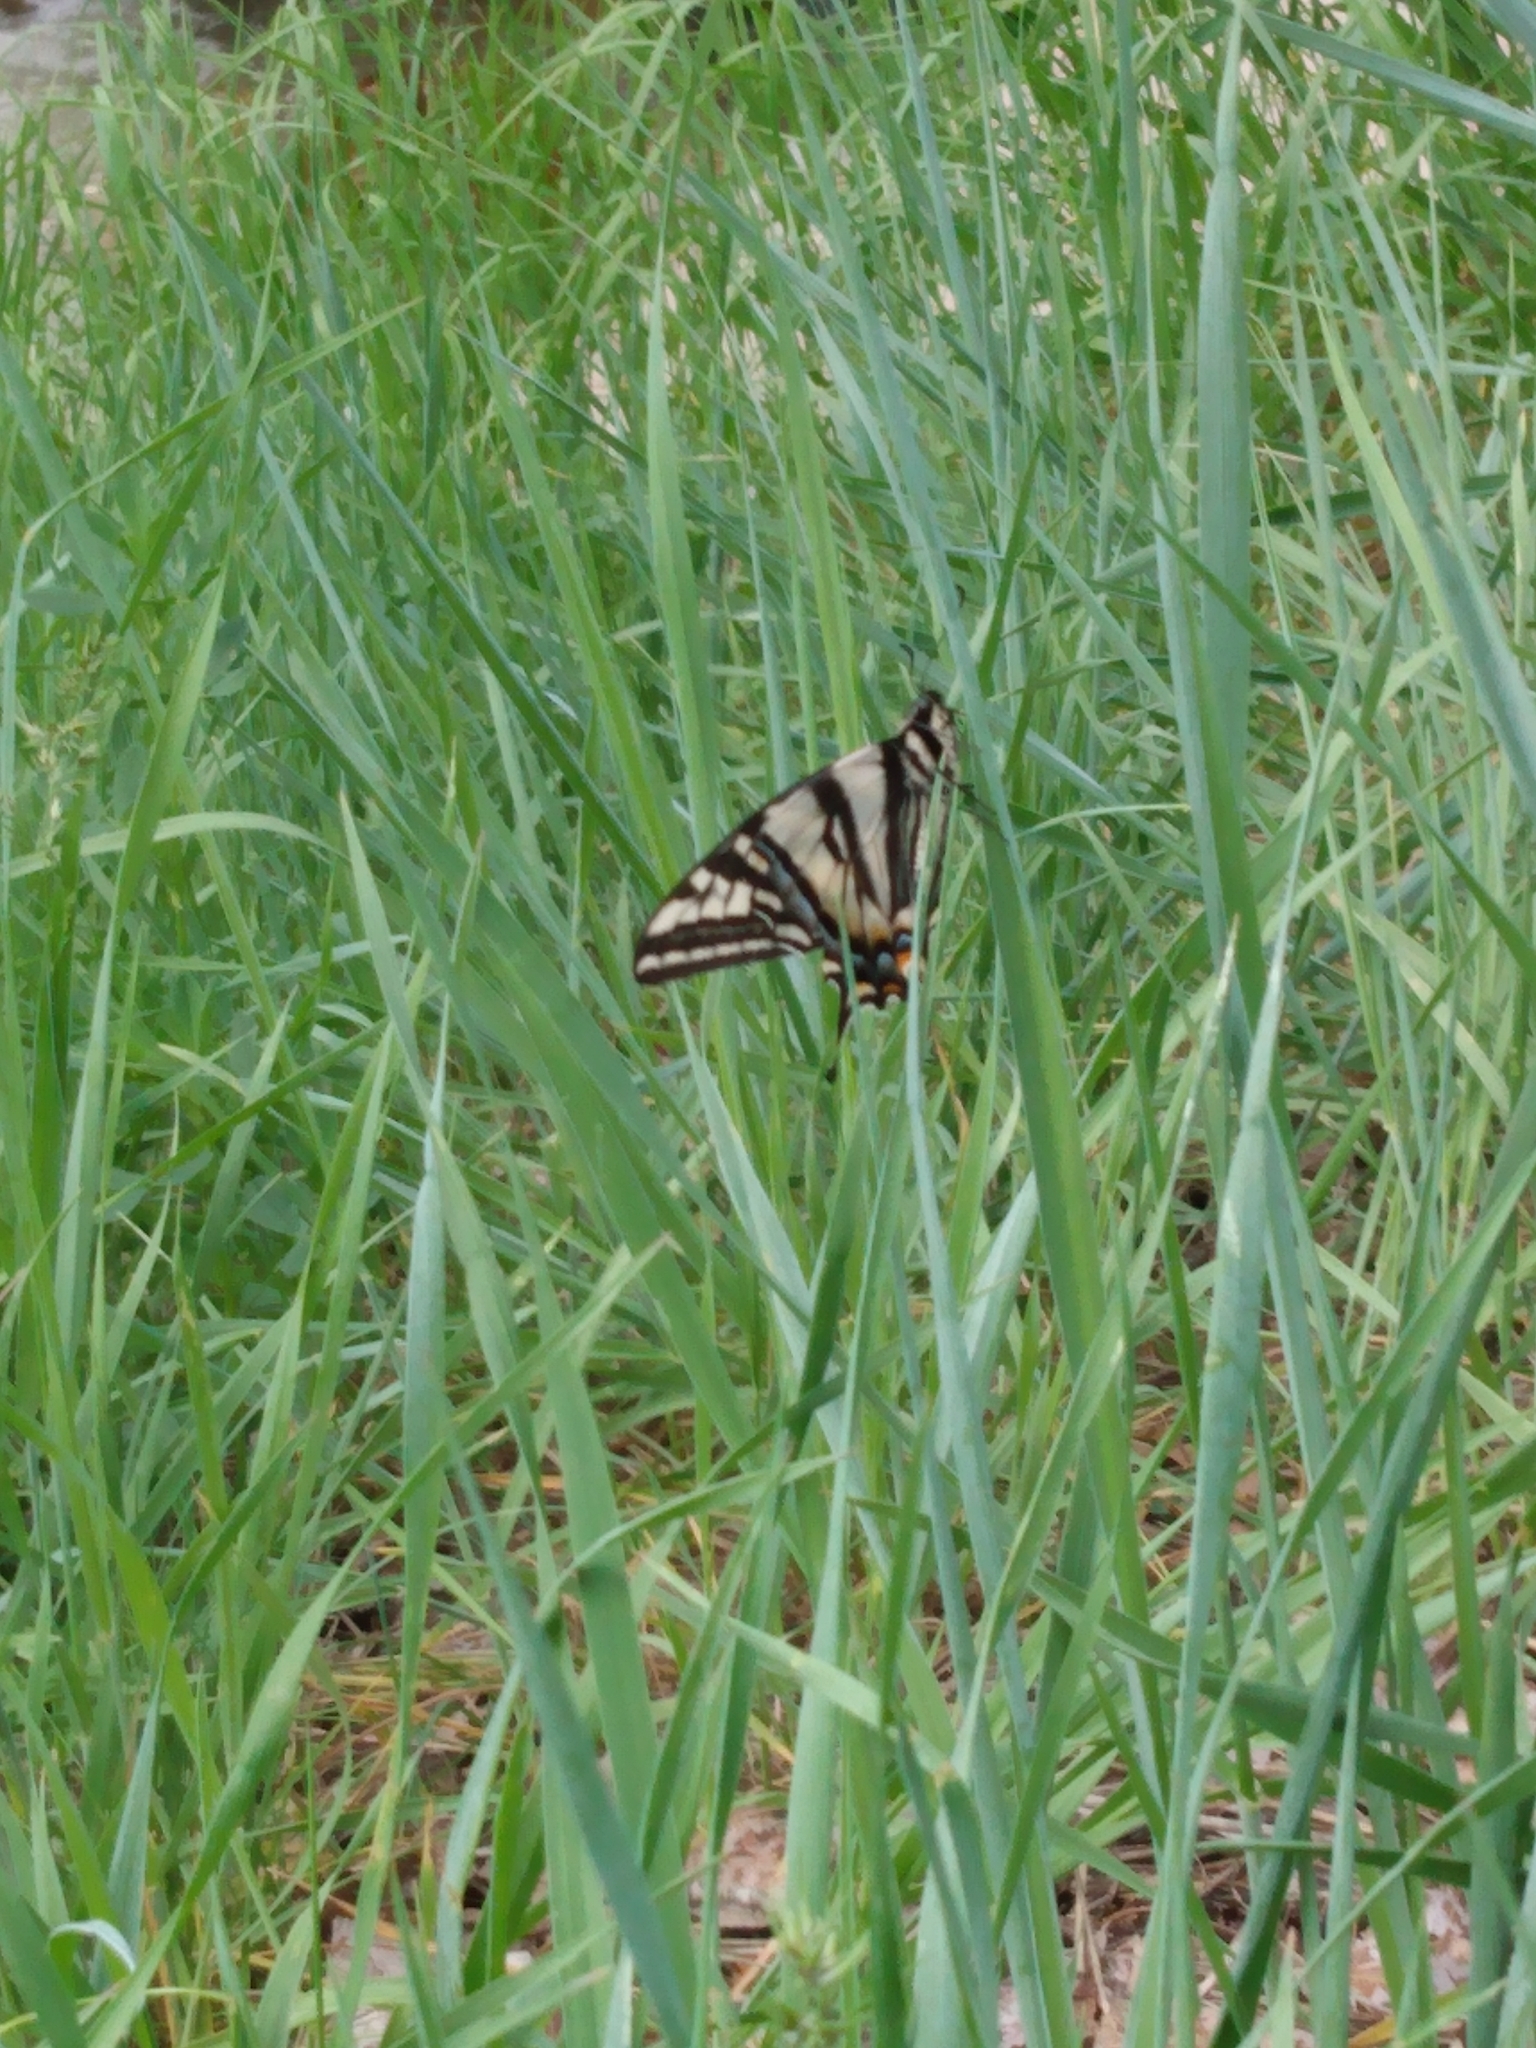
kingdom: Animalia
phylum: Arthropoda
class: Insecta
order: Lepidoptera
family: Papilionidae
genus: Papilio
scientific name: Papilio eurymedon
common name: Pale tiger swallowtail
